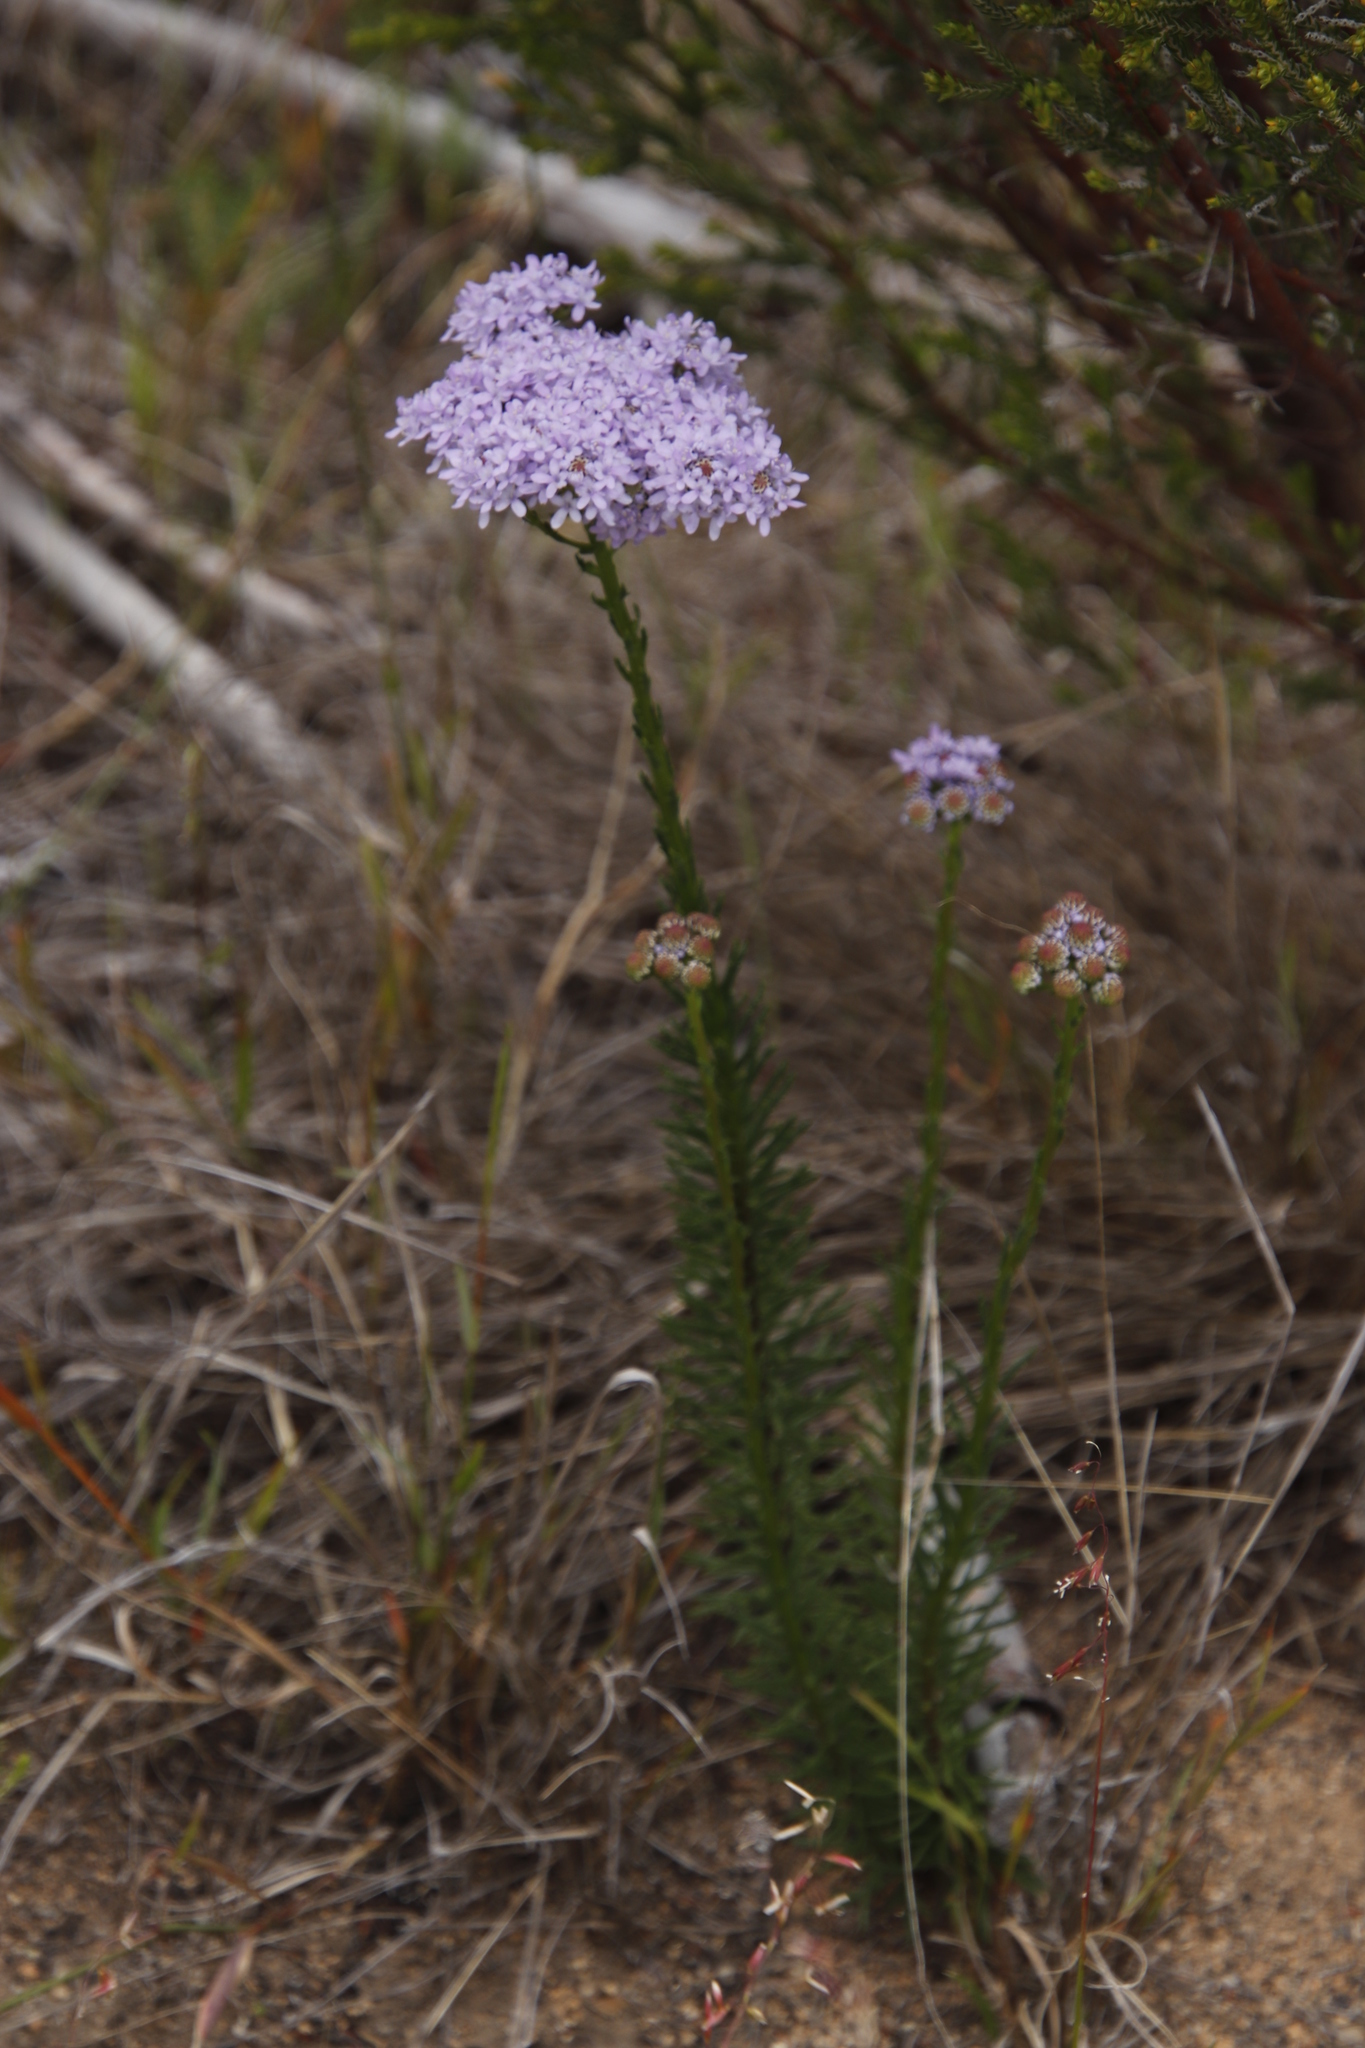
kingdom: Plantae
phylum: Tracheophyta
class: Magnoliopsida
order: Lamiales
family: Scrophulariaceae
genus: Pseudoselago
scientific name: Pseudoselago spuria
